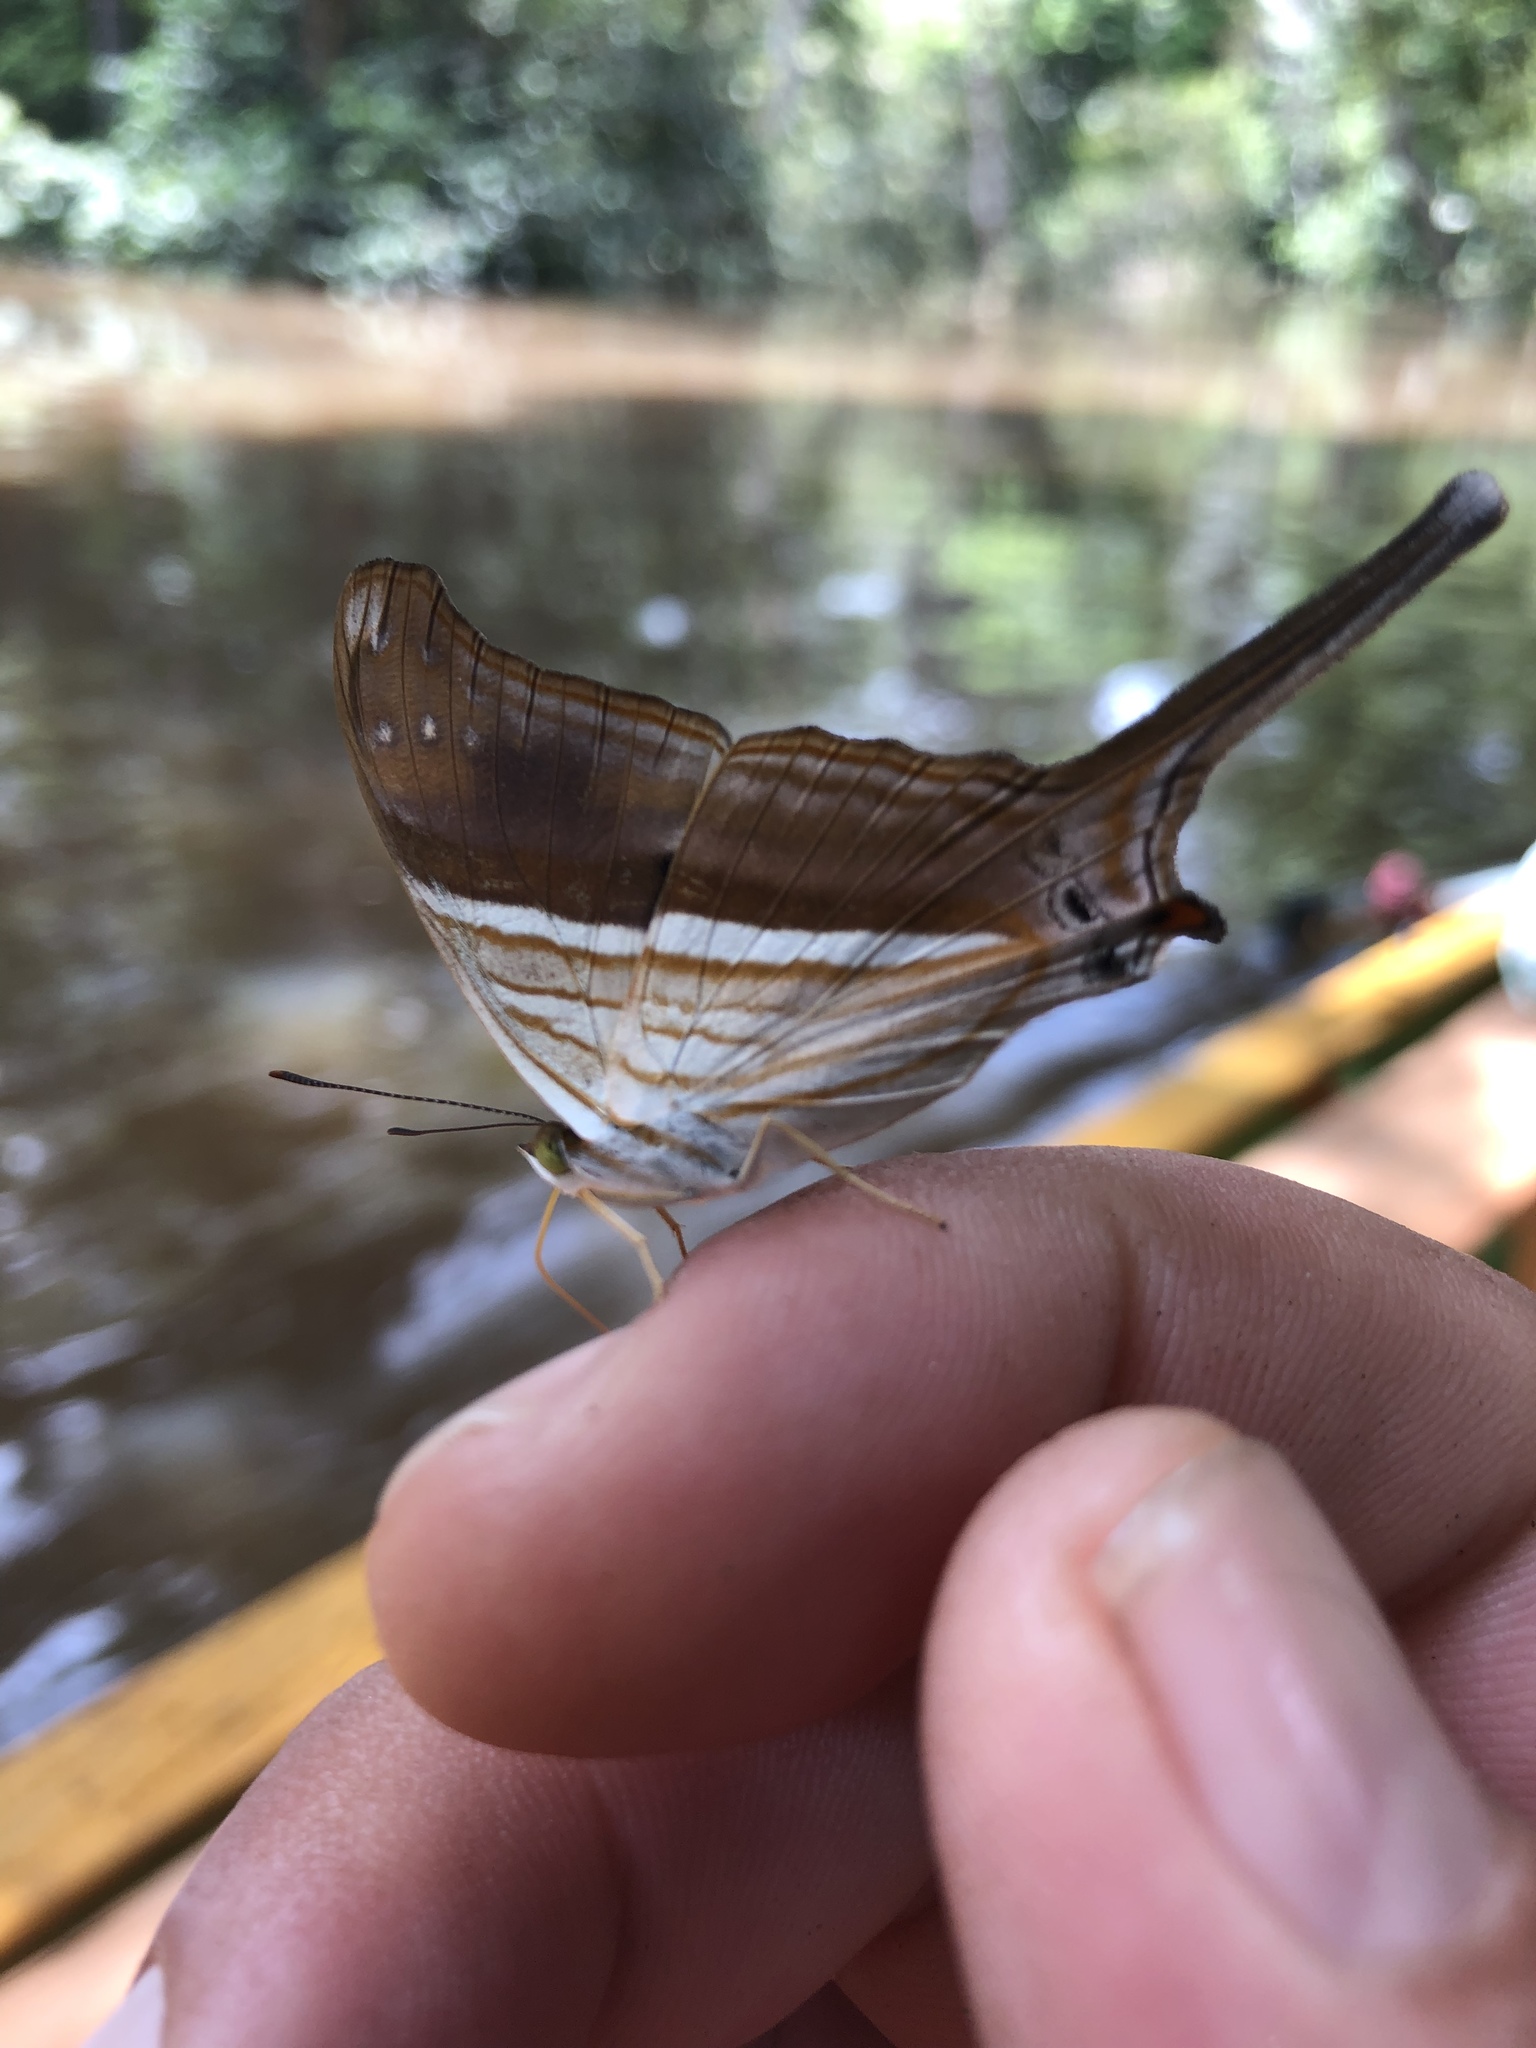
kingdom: Animalia
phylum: Arthropoda
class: Insecta
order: Lepidoptera
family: Nymphalidae
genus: Marpesia
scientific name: Marpesia chiron
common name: Many-banded daggerwing
